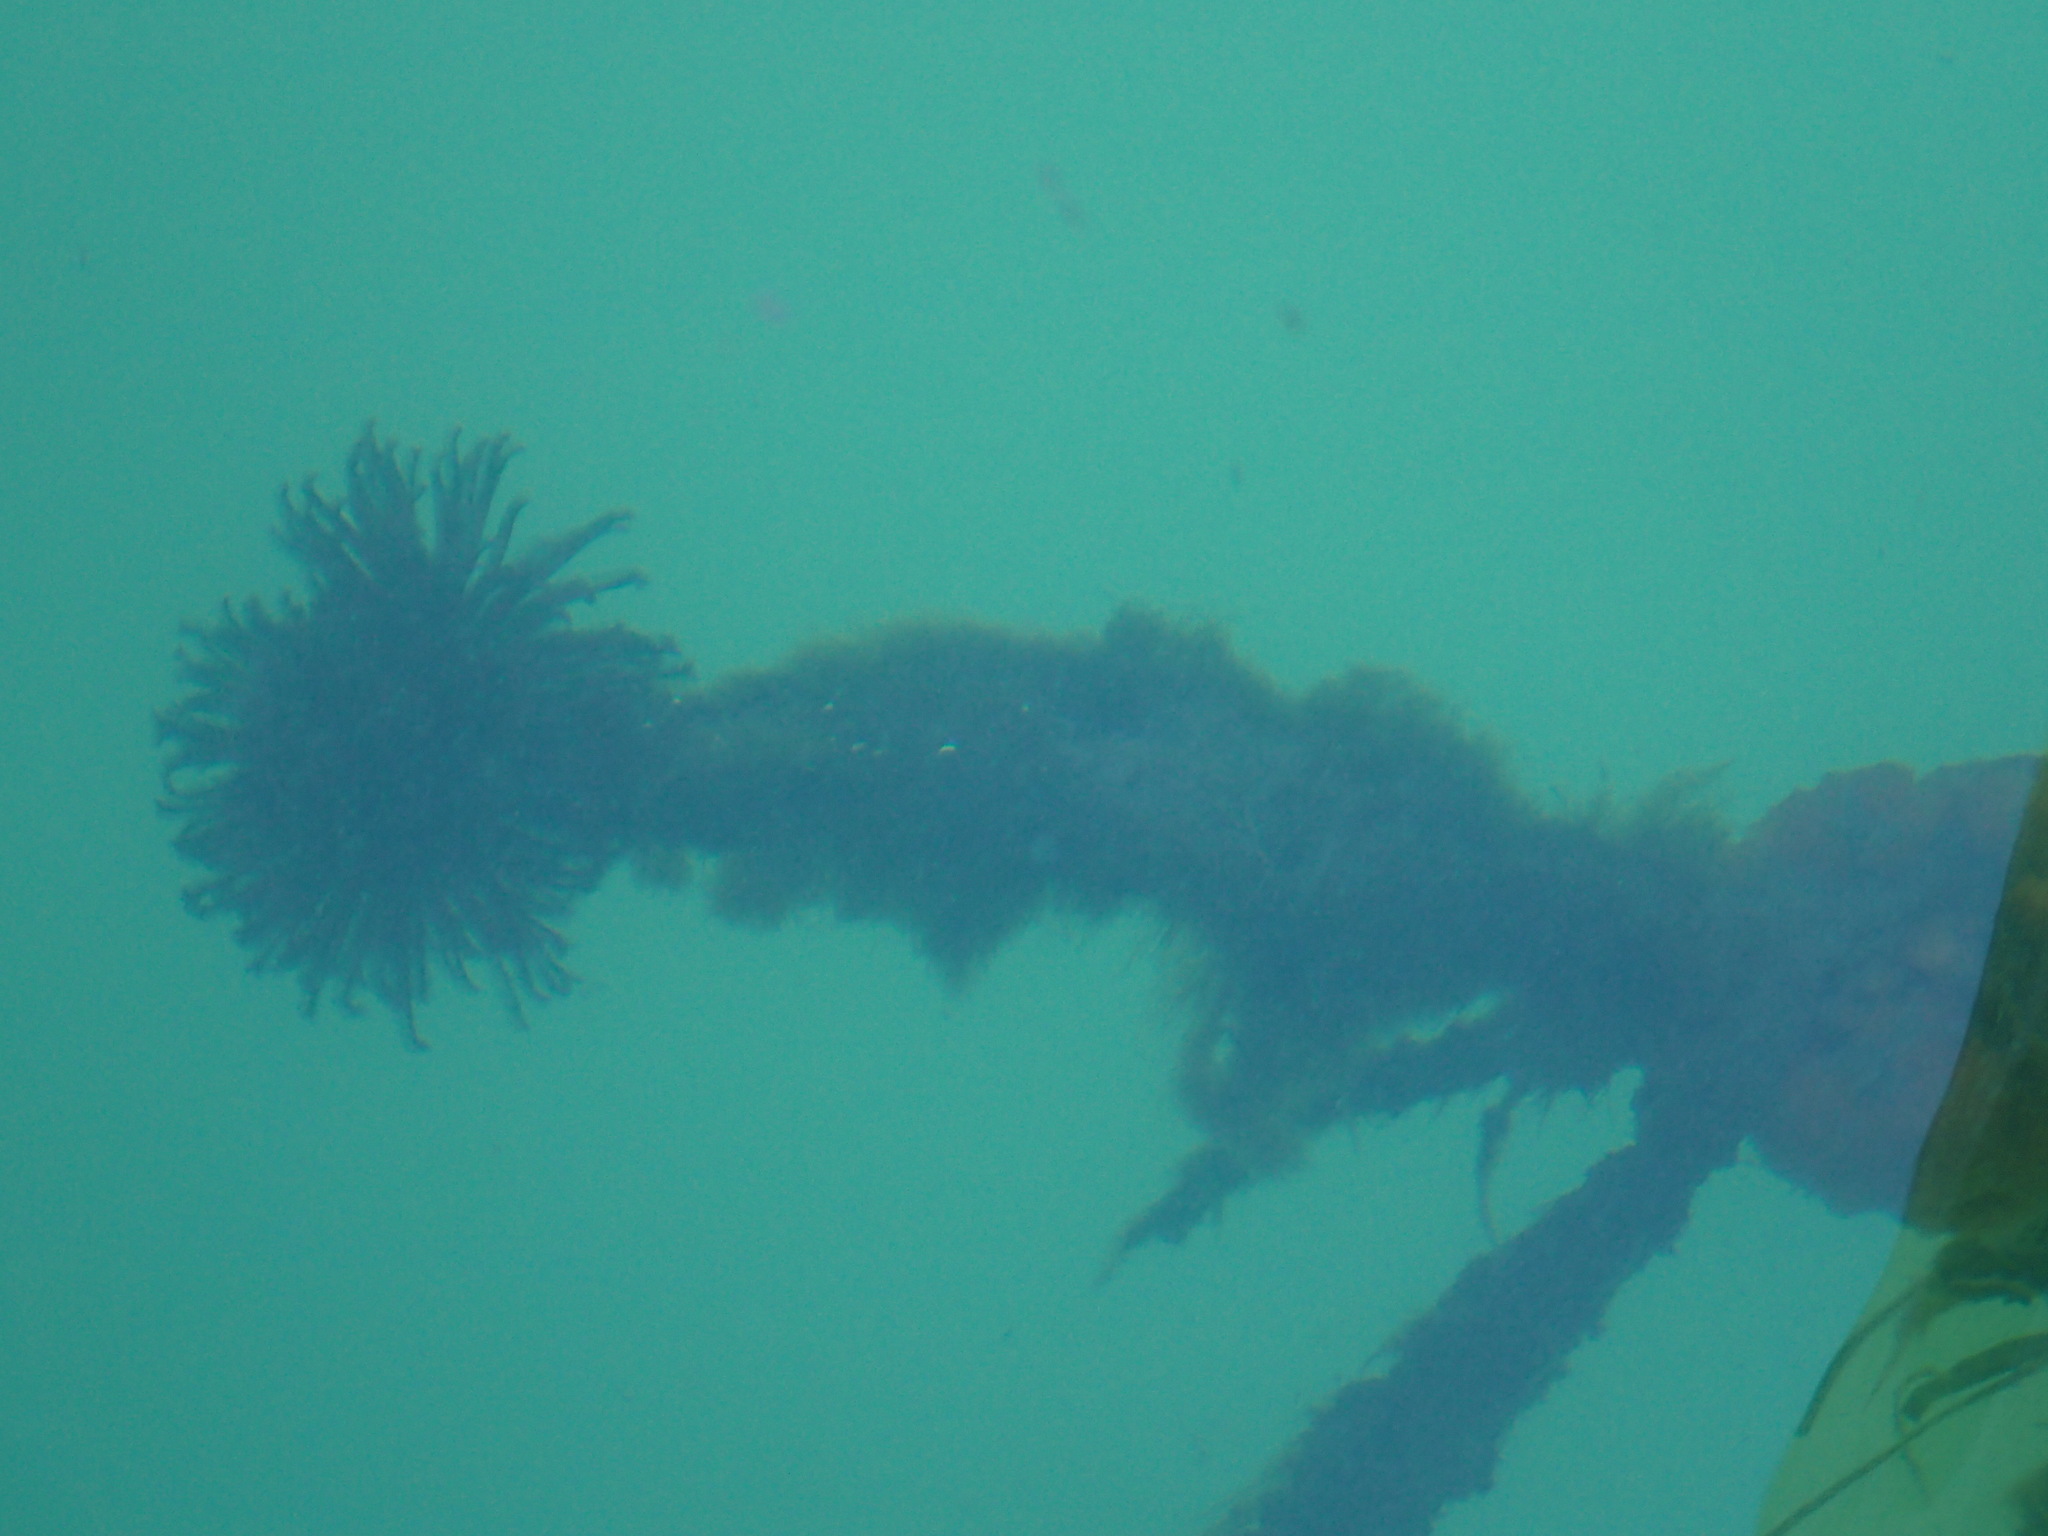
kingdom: Animalia
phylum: Annelida
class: Polychaeta
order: Sabellida
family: Sabellidae
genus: Eudistylia
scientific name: Eudistylia vancouveri
